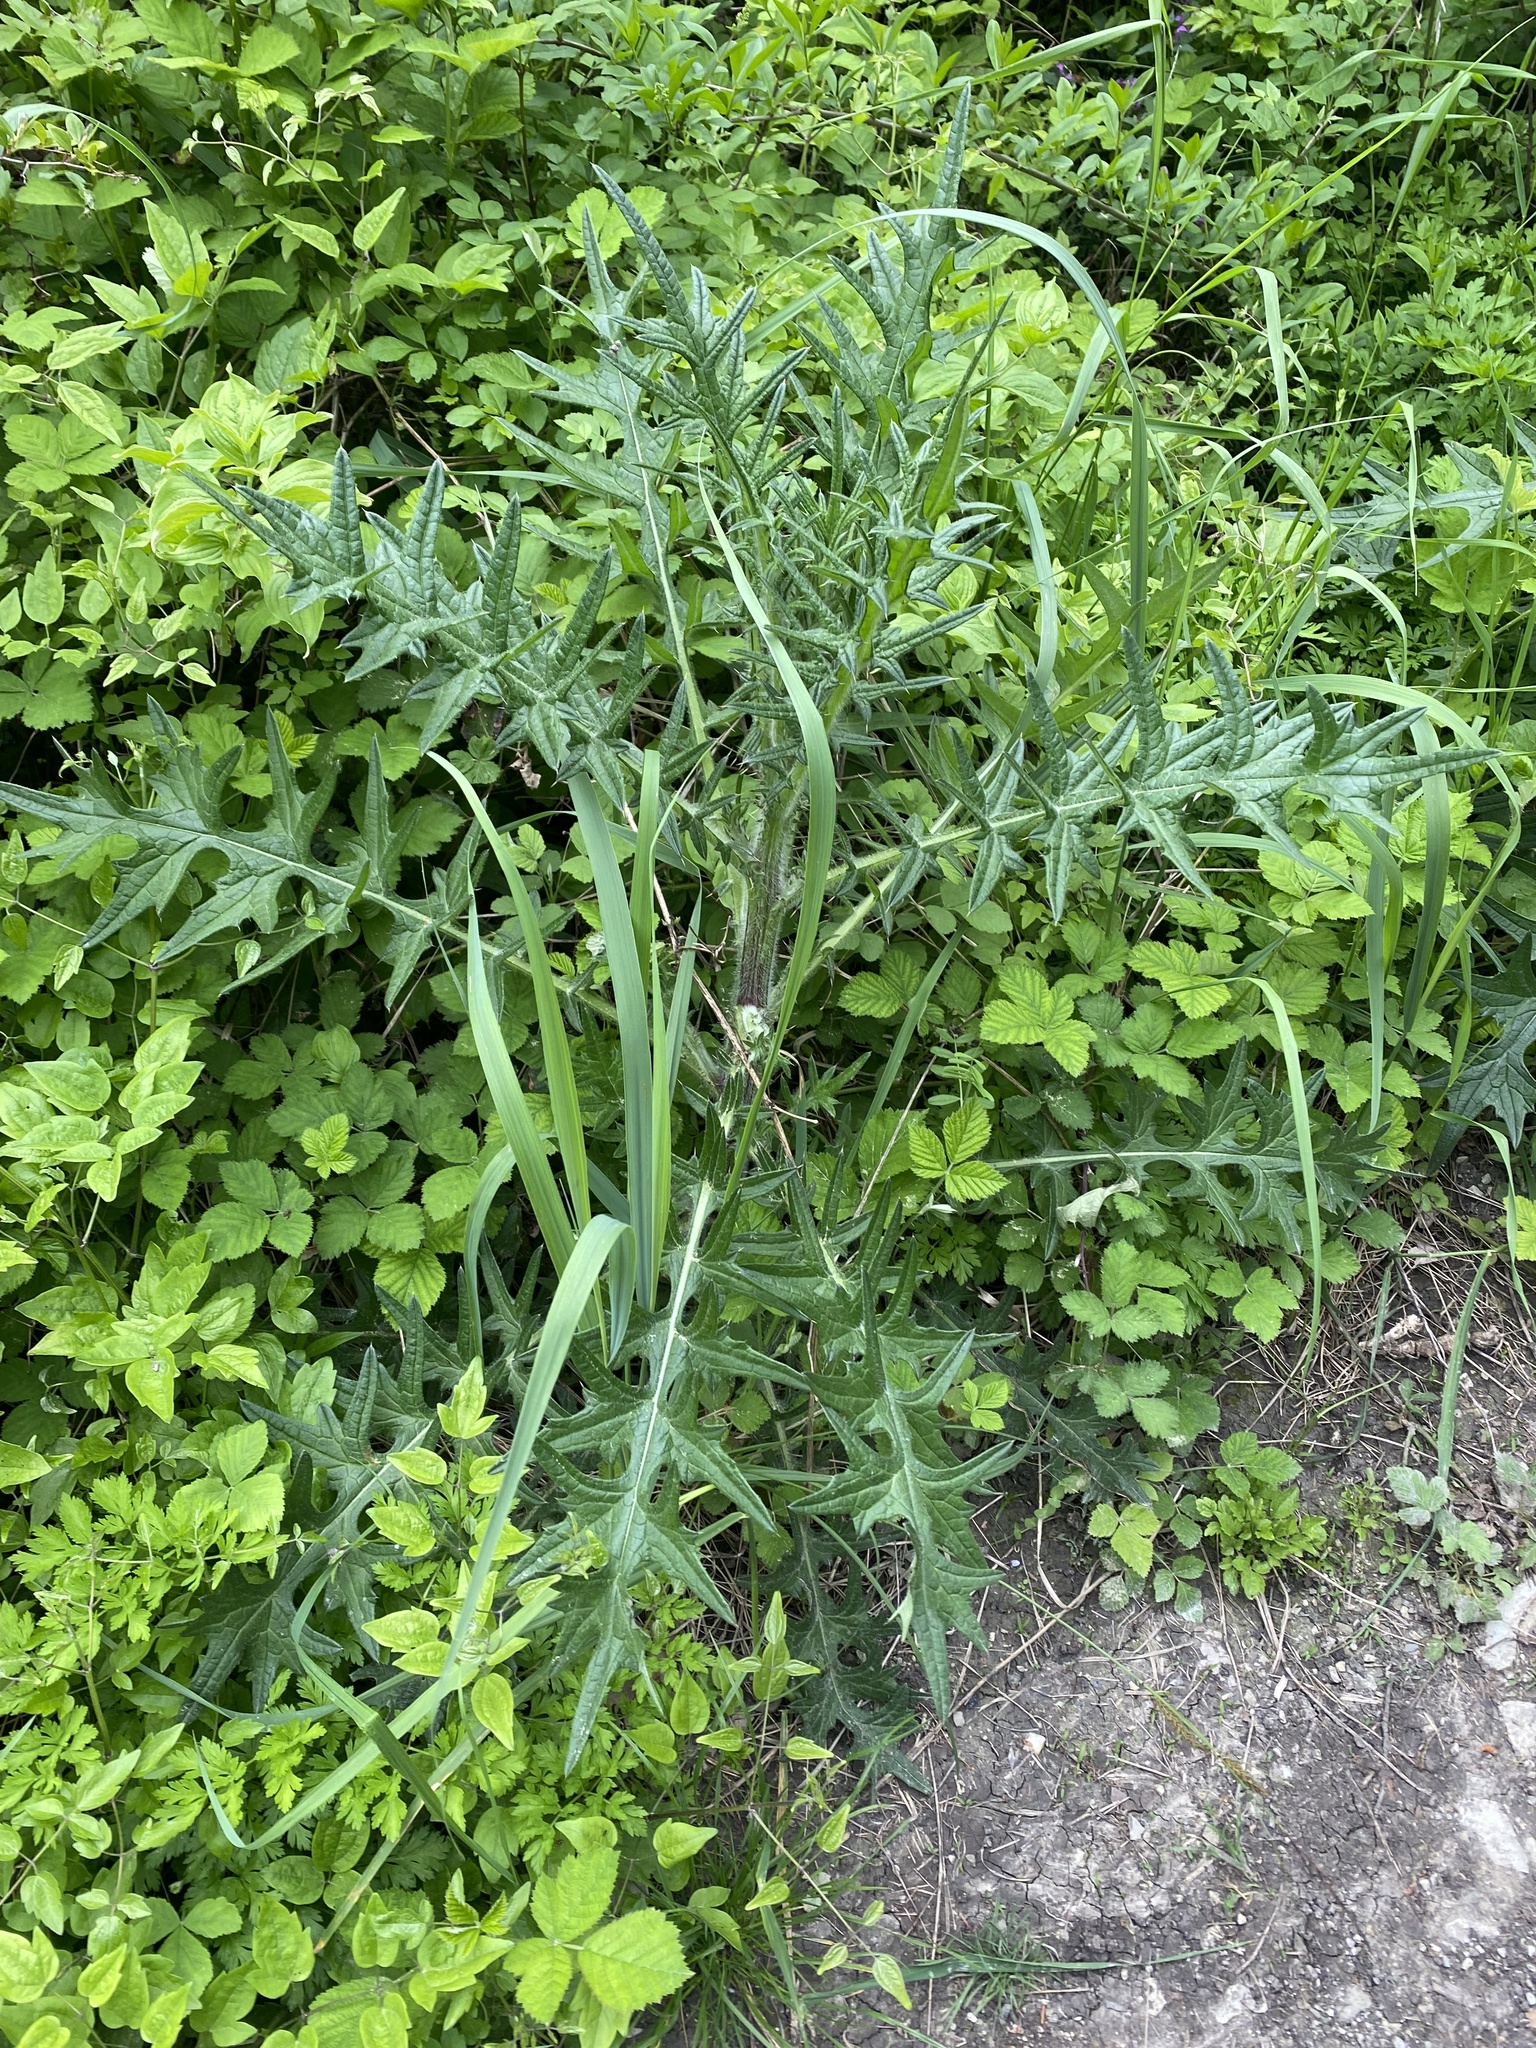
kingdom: Plantae
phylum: Tracheophyta
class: Magnoliopsida
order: Asterales
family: Asteraceae
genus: Cirsium
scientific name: Cirsium vulgare
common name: Bull thistle
